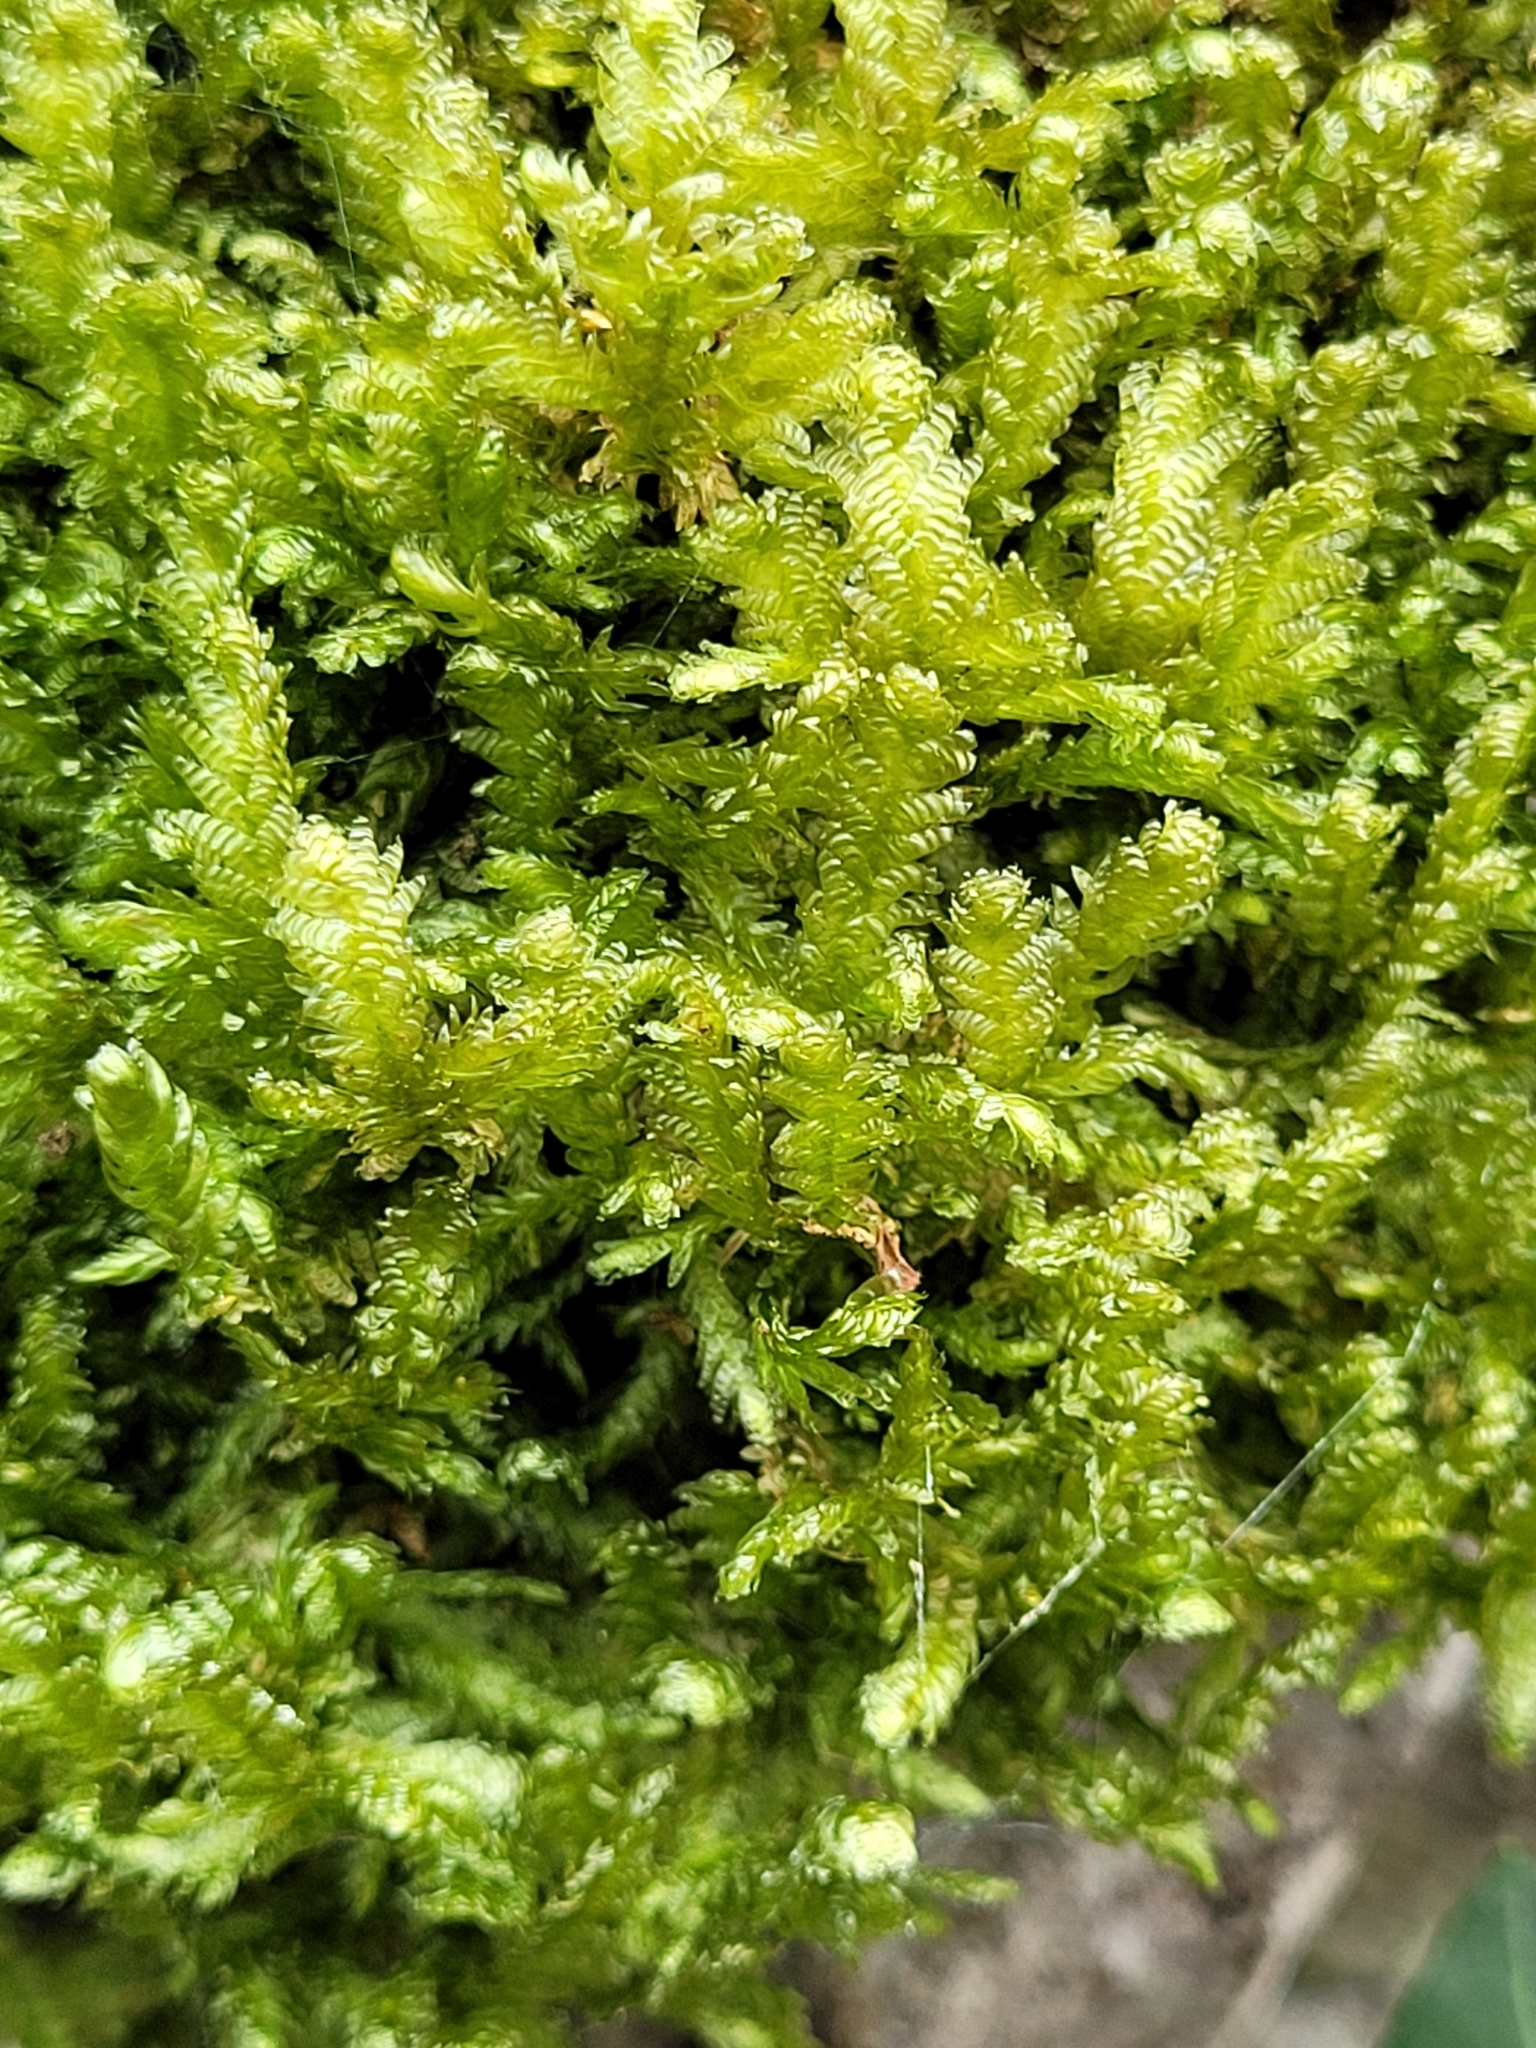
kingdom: Plantae
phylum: Bryophyta
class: Bryopsida
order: Hypnales
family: Neckeraceae
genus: Exsertotheca
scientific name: Exsertotheca crispa
